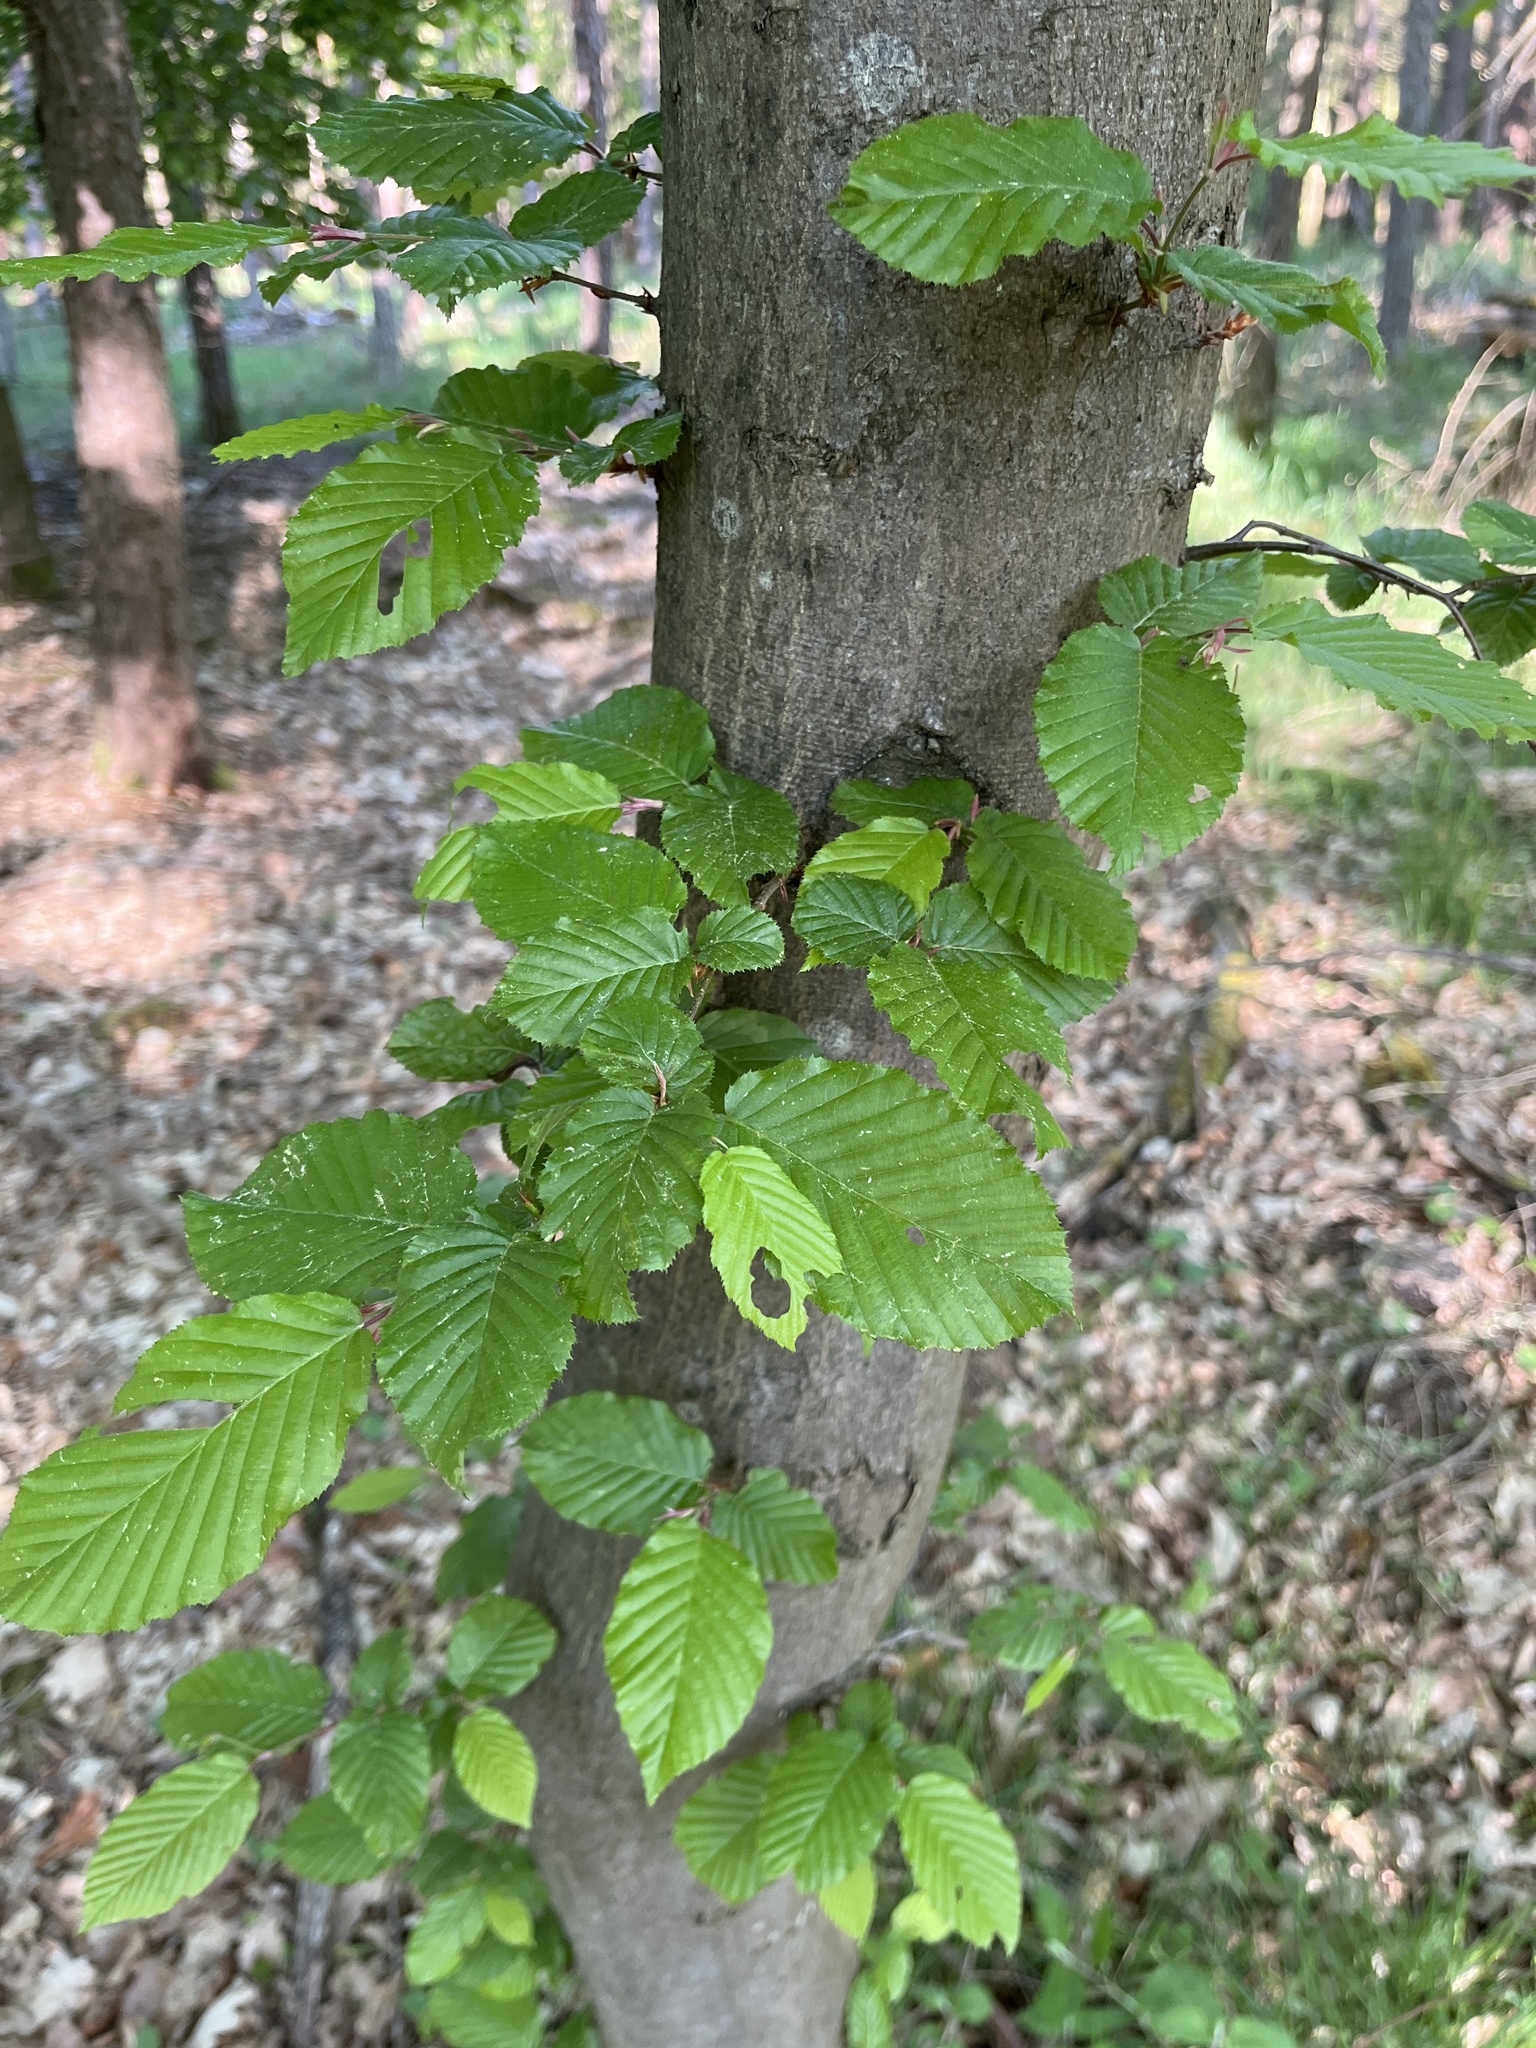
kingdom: Plantae
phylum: Tracheophyta
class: Magnoliopsida
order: Fagales
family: Betulaceae
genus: Carpinus
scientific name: Carpinus betulus
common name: Hornbeam
